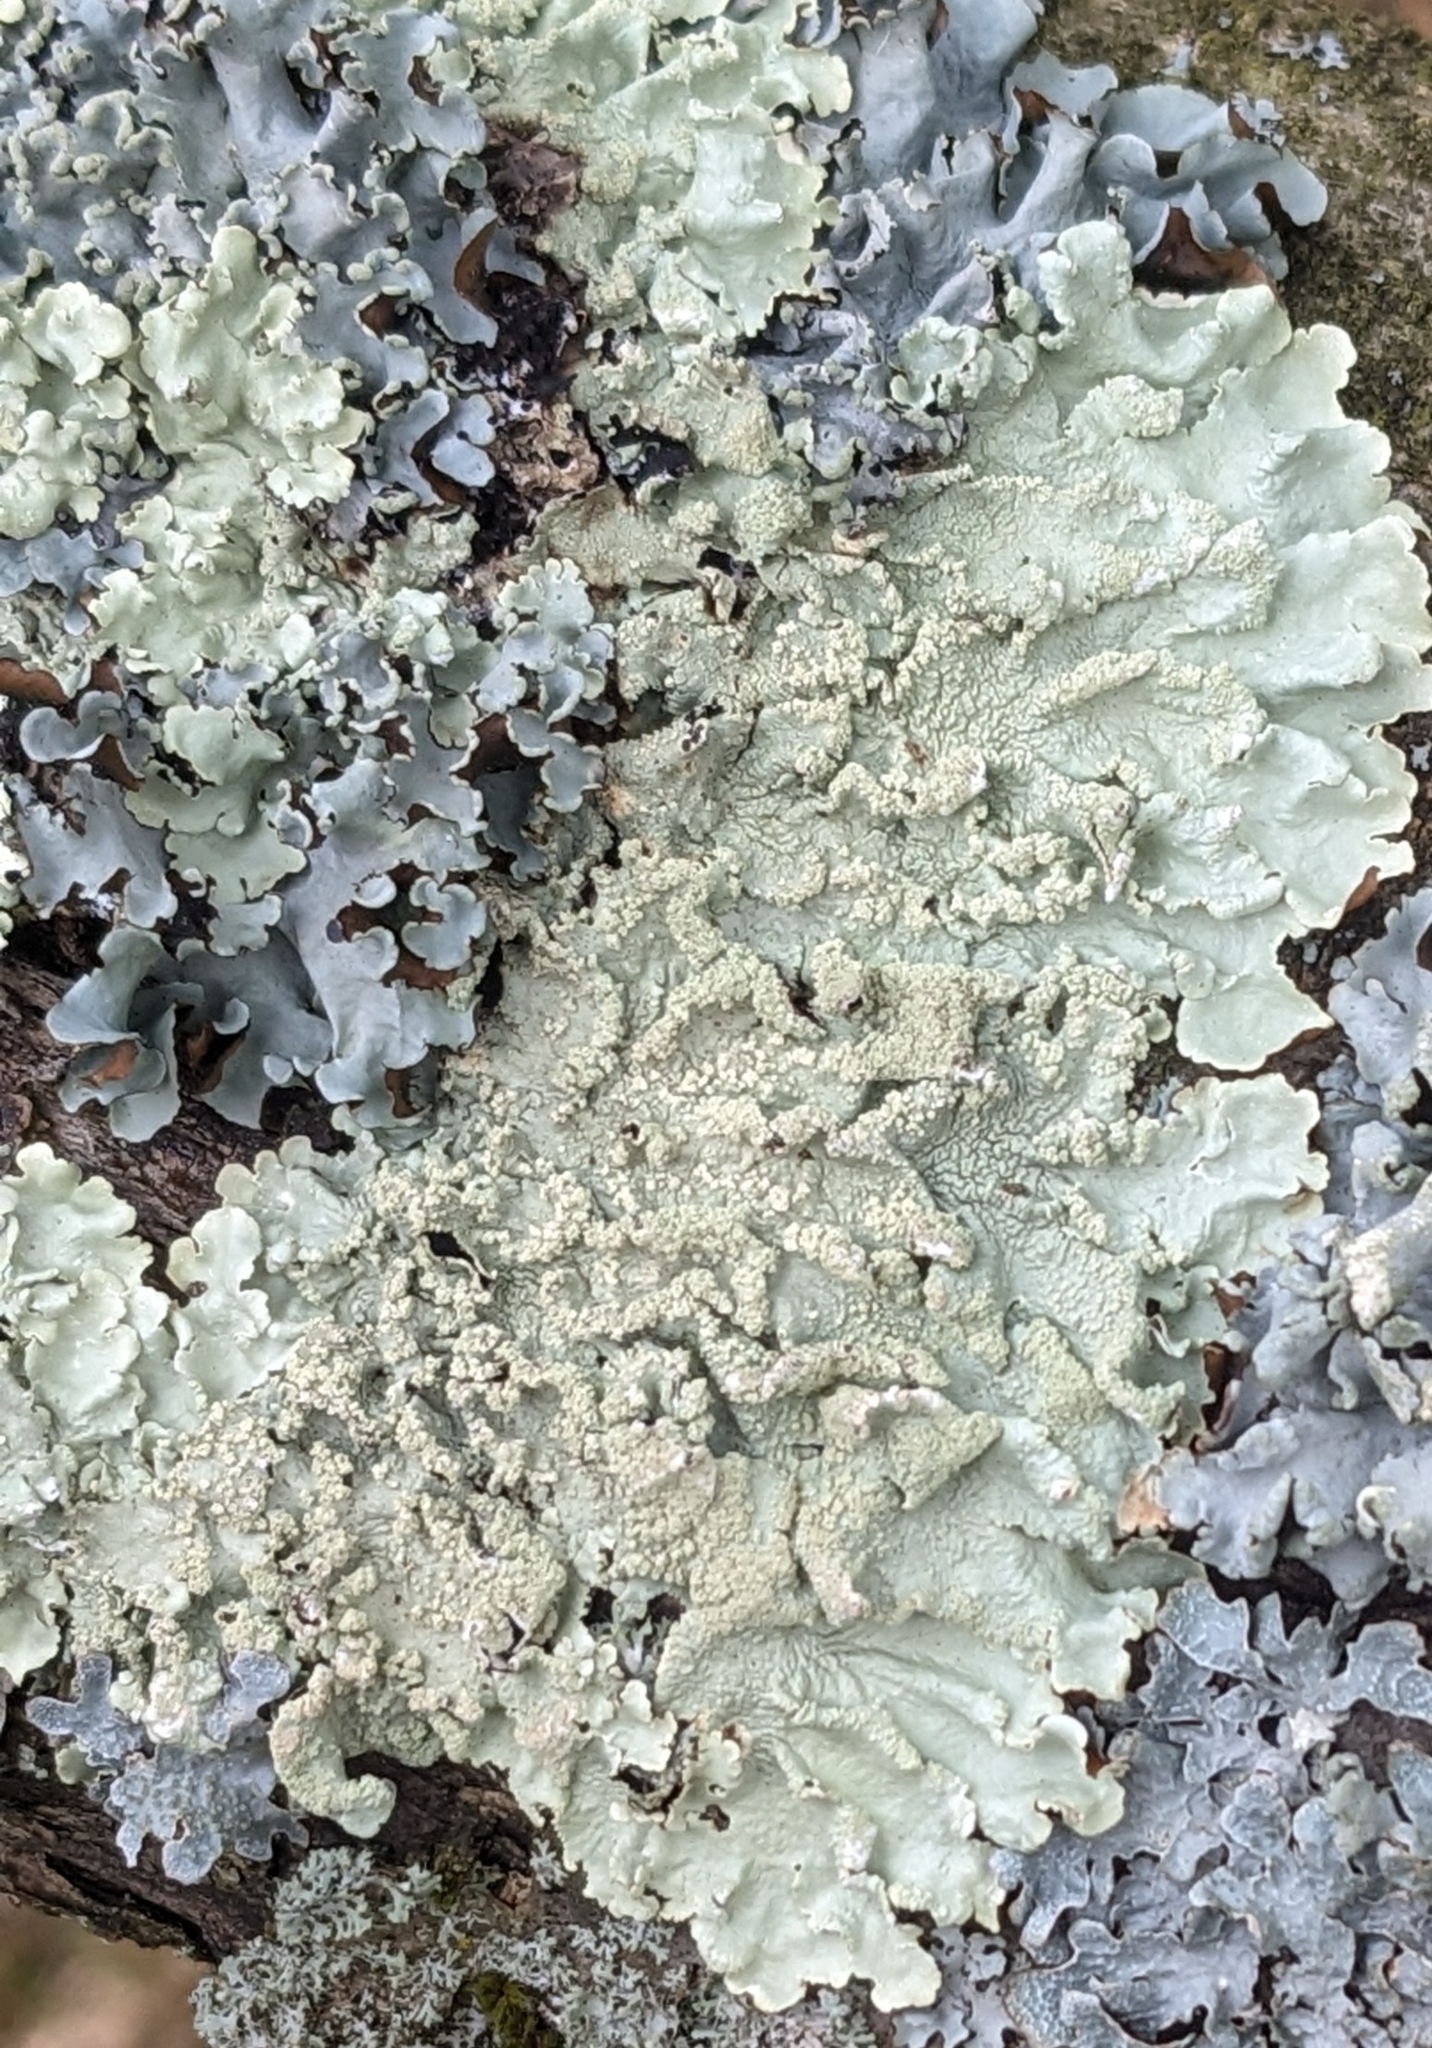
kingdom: Fungi
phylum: Ascomycota
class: Lecanoromycetes
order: Lecanorales
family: Parmeliaceae
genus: Flavoparmelia
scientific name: Flavoparmelia caperata
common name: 40-mile per hour lichen
